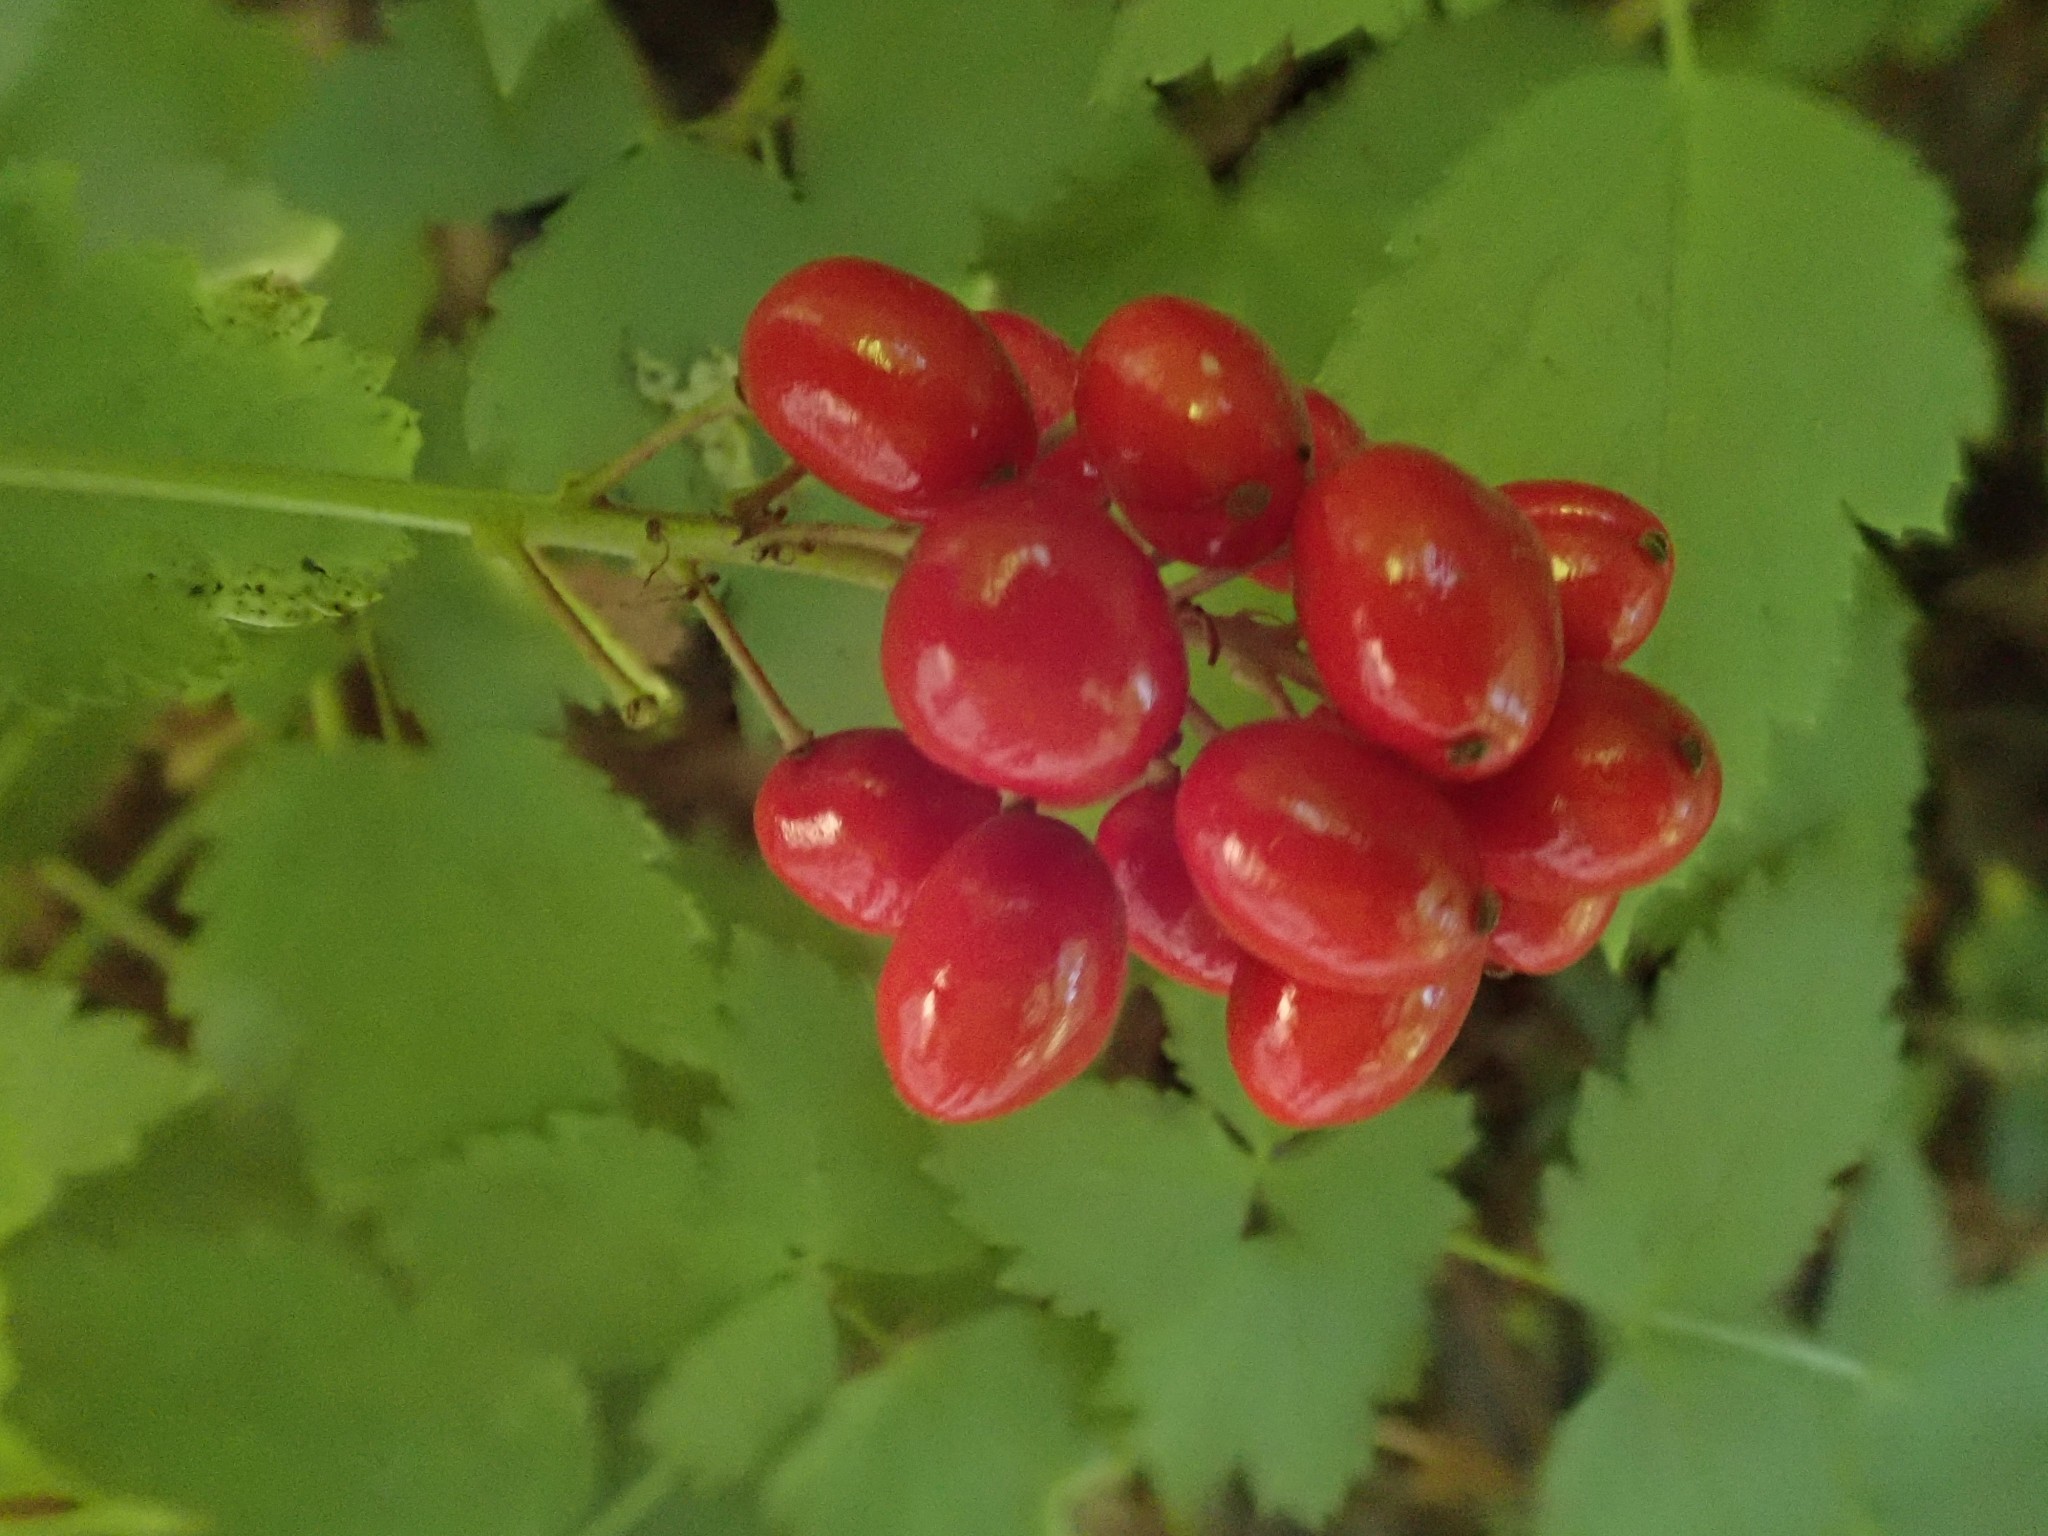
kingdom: Plantae
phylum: Tracheophyta
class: Magnoliopsida
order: Ranunculales
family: Ranunculaceae
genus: Actaea
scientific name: Actaea rubra
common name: Red baneberry
